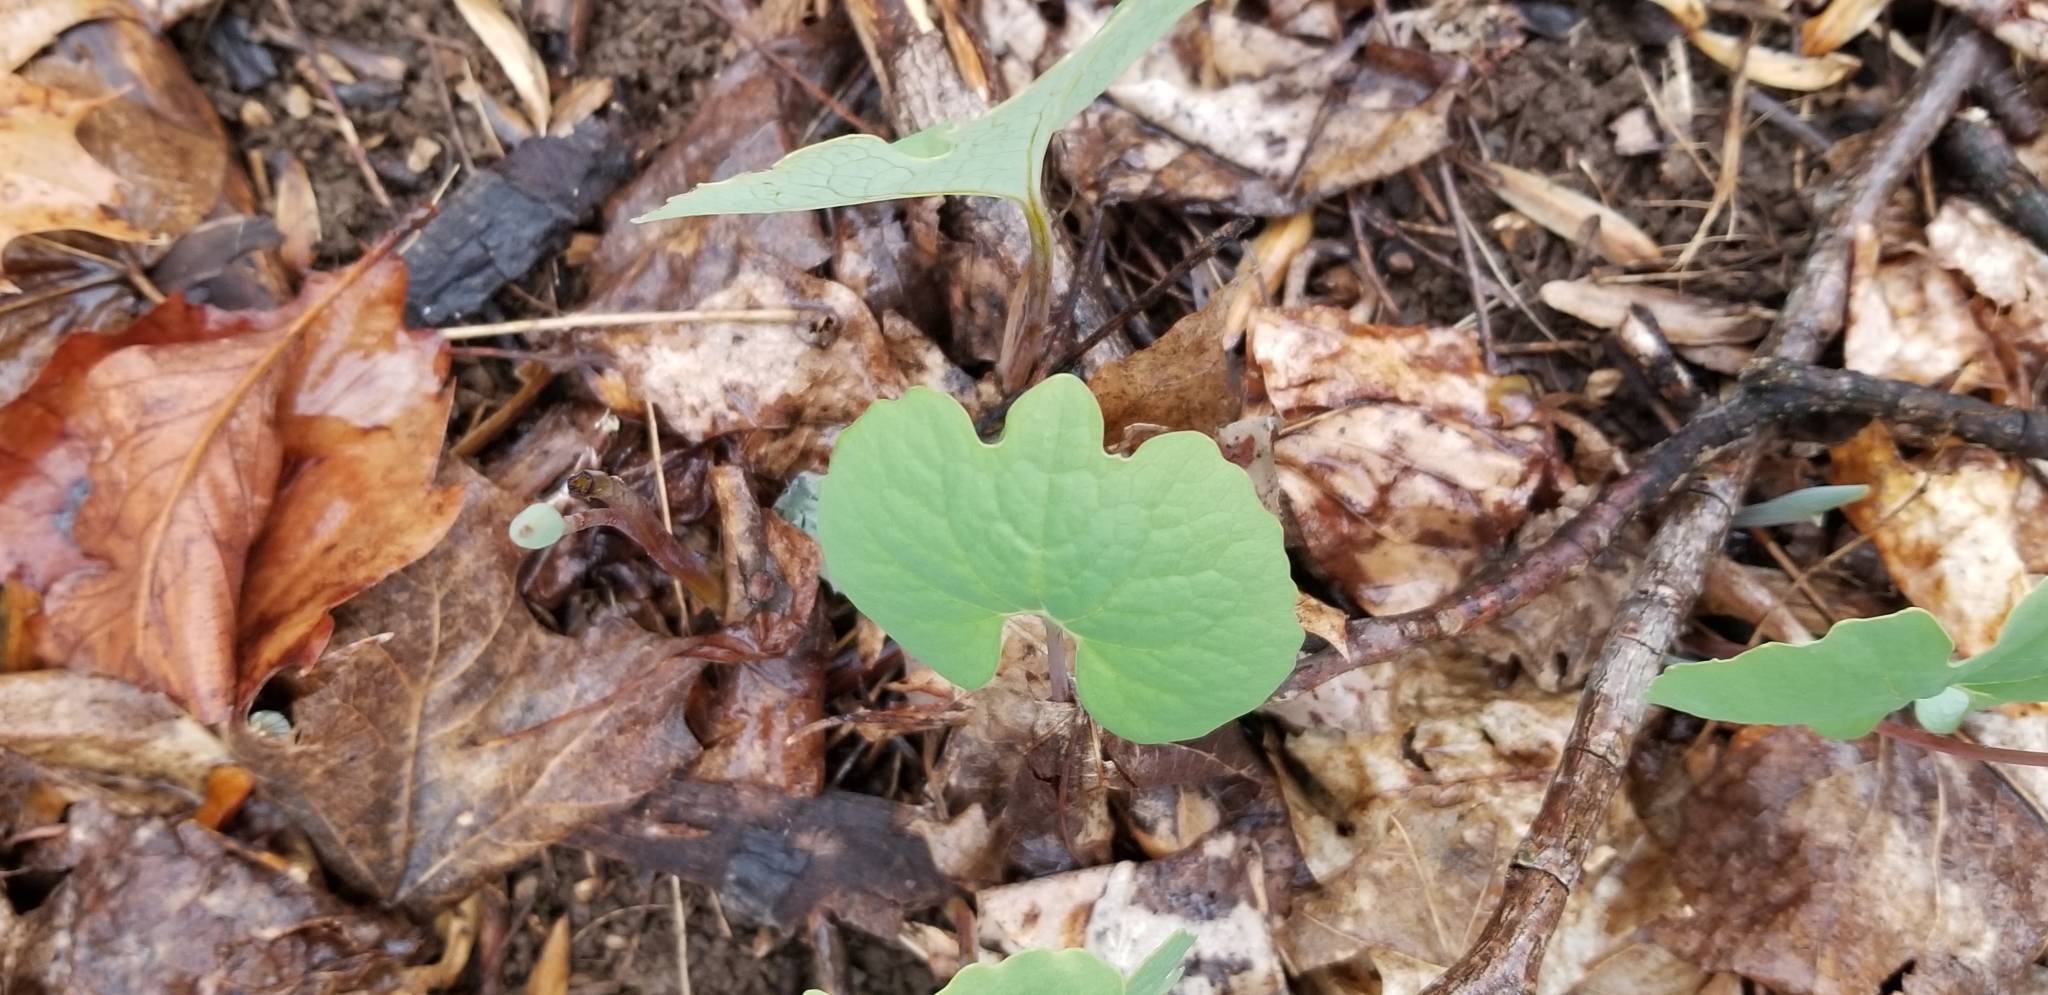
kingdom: Plantae
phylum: Tracheophyta
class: Magnoliopsida
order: Ranunculales
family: Papaveraceae
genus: Sanguinaria
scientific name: Sanguinaria canadensis
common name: Bloodroot
